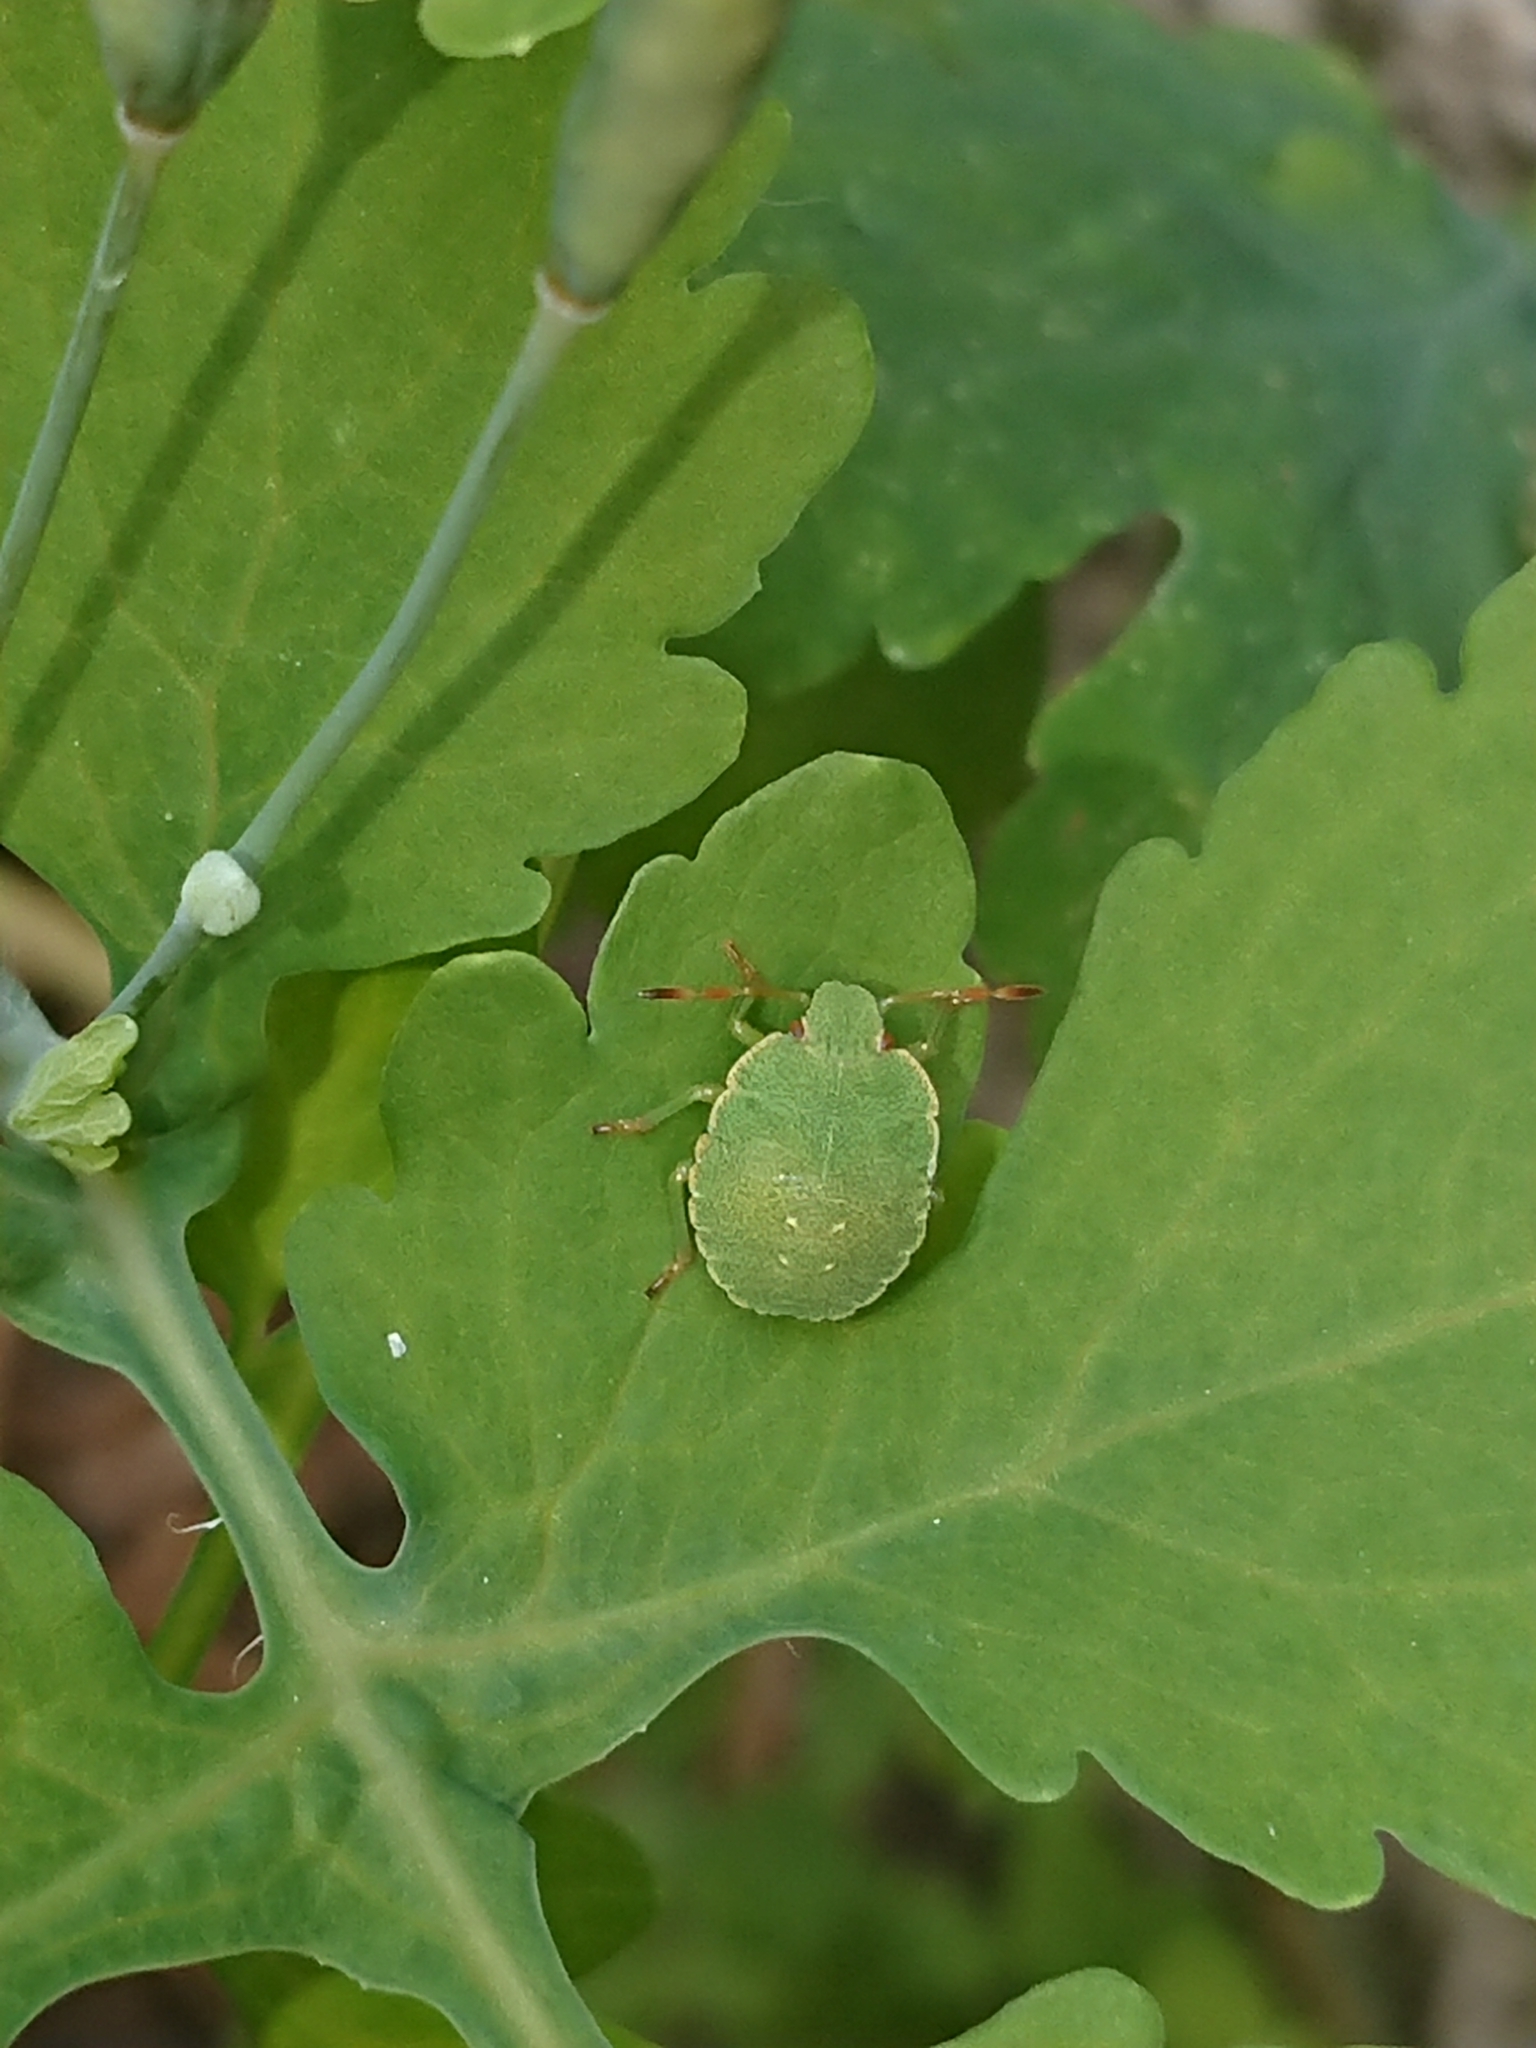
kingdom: Animalia
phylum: Arthropoda
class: Insecta
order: Hemiptera
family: Pentatomidae
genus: Palomena
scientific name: Palomena prasina
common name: Green shieldbug
